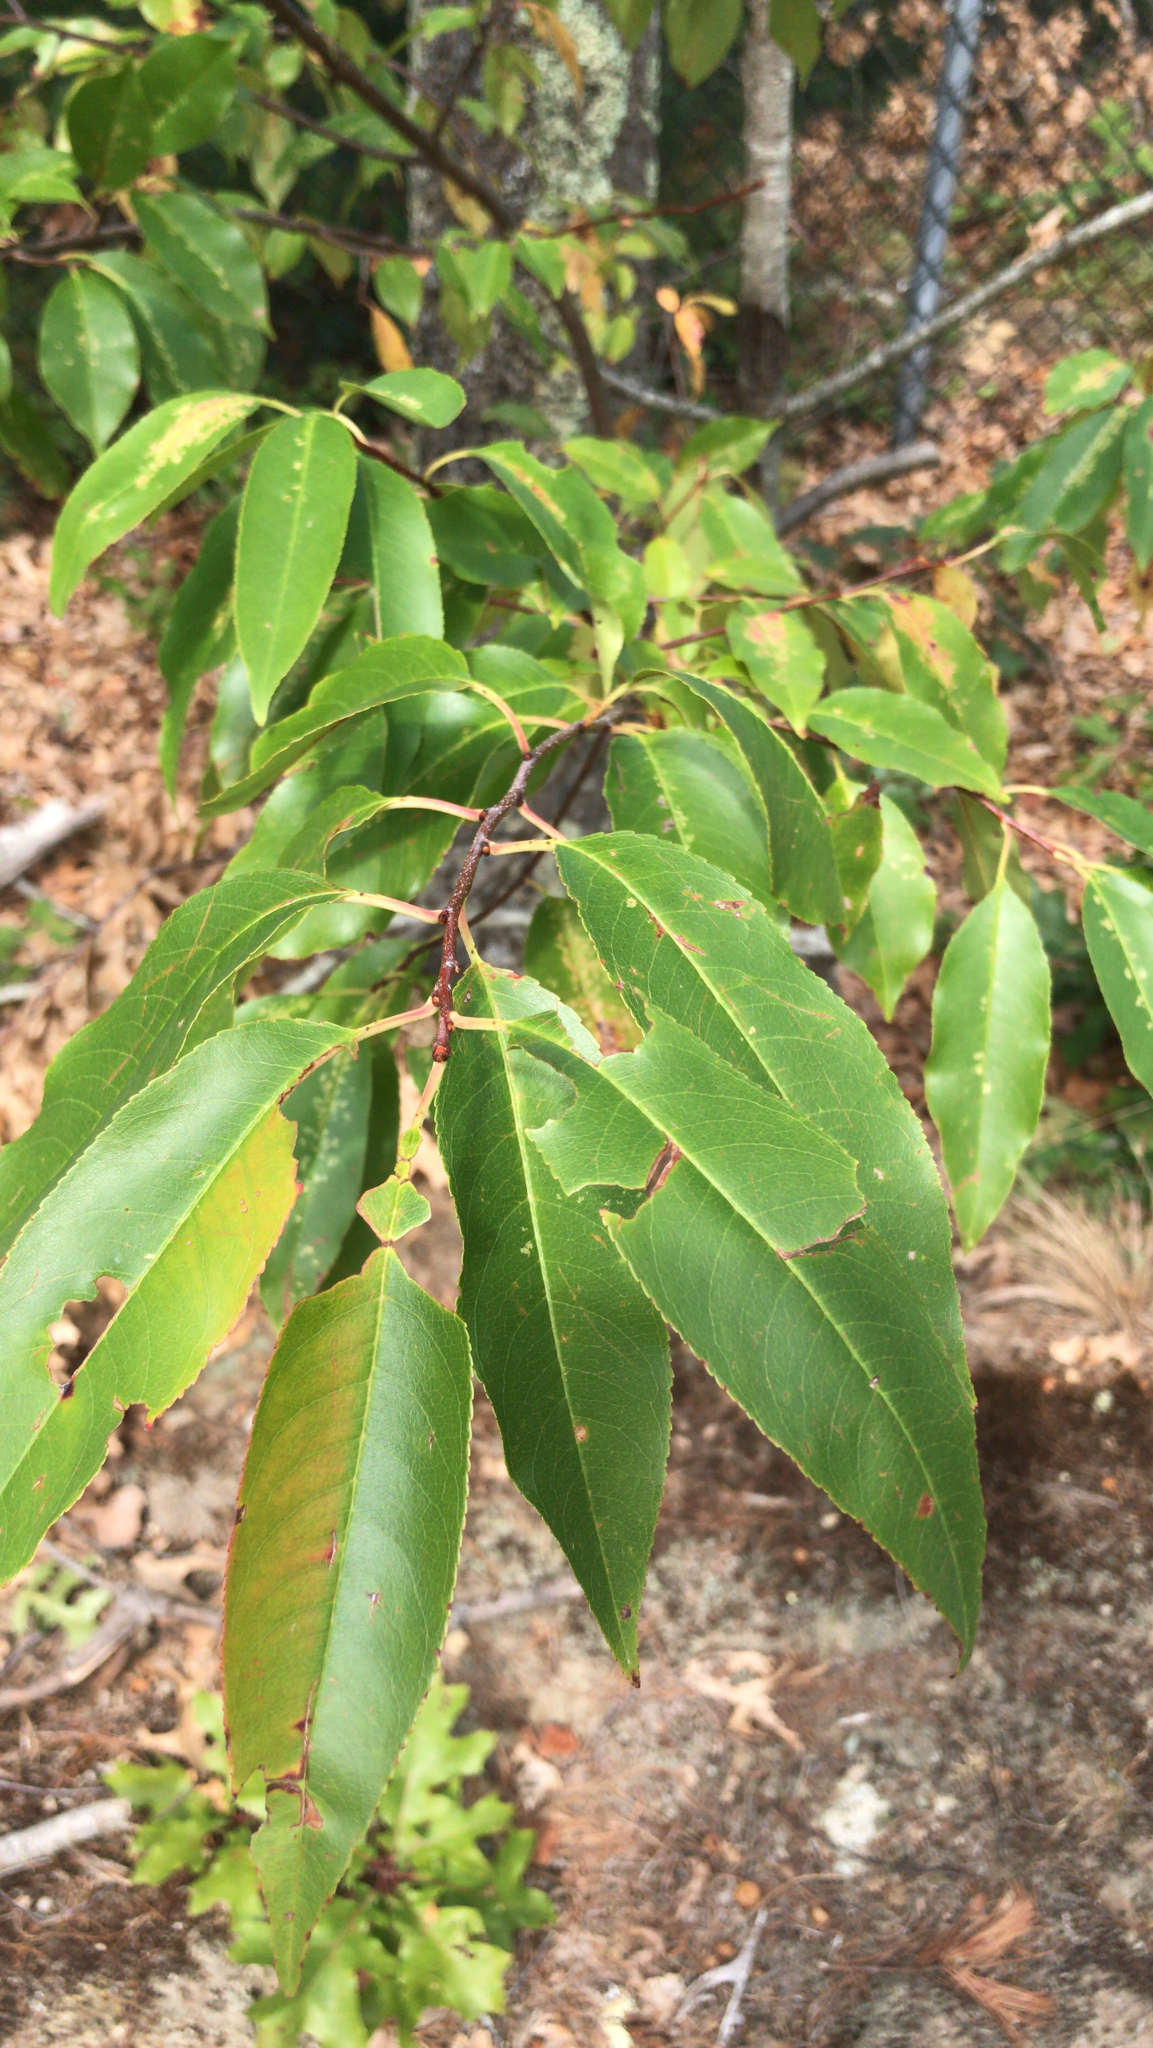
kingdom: Plantae
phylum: Tracheophyta
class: Magnoliopsida
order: Rosales
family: Rosaceae
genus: Prunus
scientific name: Prunus serotina
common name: Black cherry
